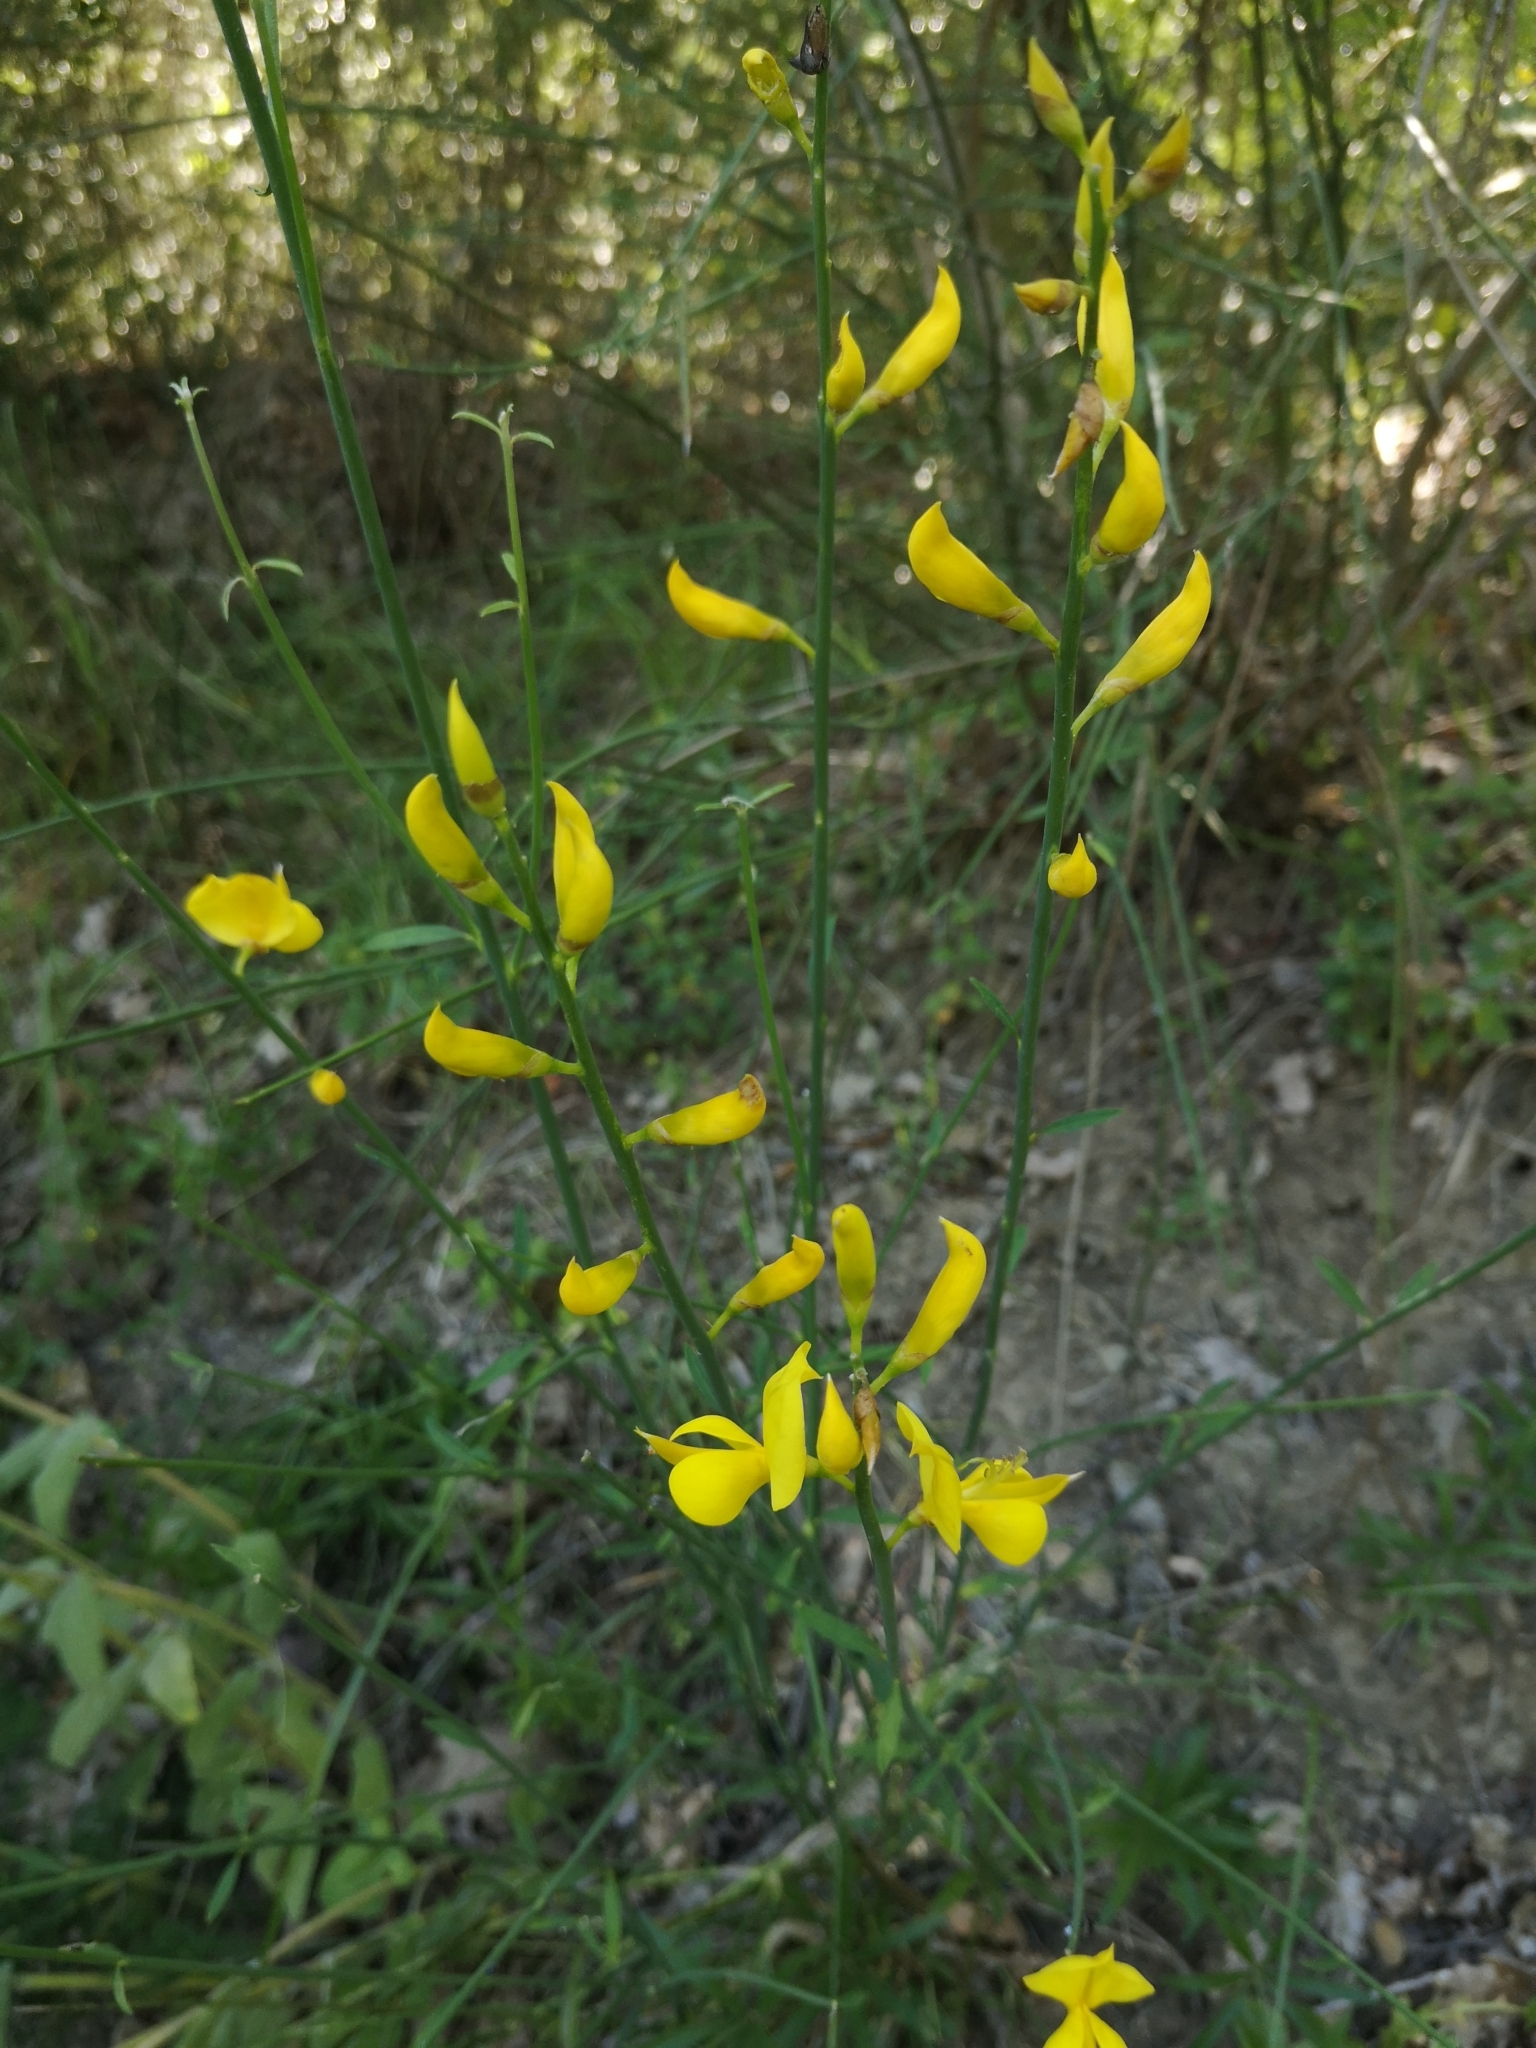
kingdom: Plantae
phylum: Tracheophyta
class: Magnoliopsida
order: Fabales
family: Fabaceae
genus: Spartium
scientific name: Spartium junceum
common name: Spanish broom
